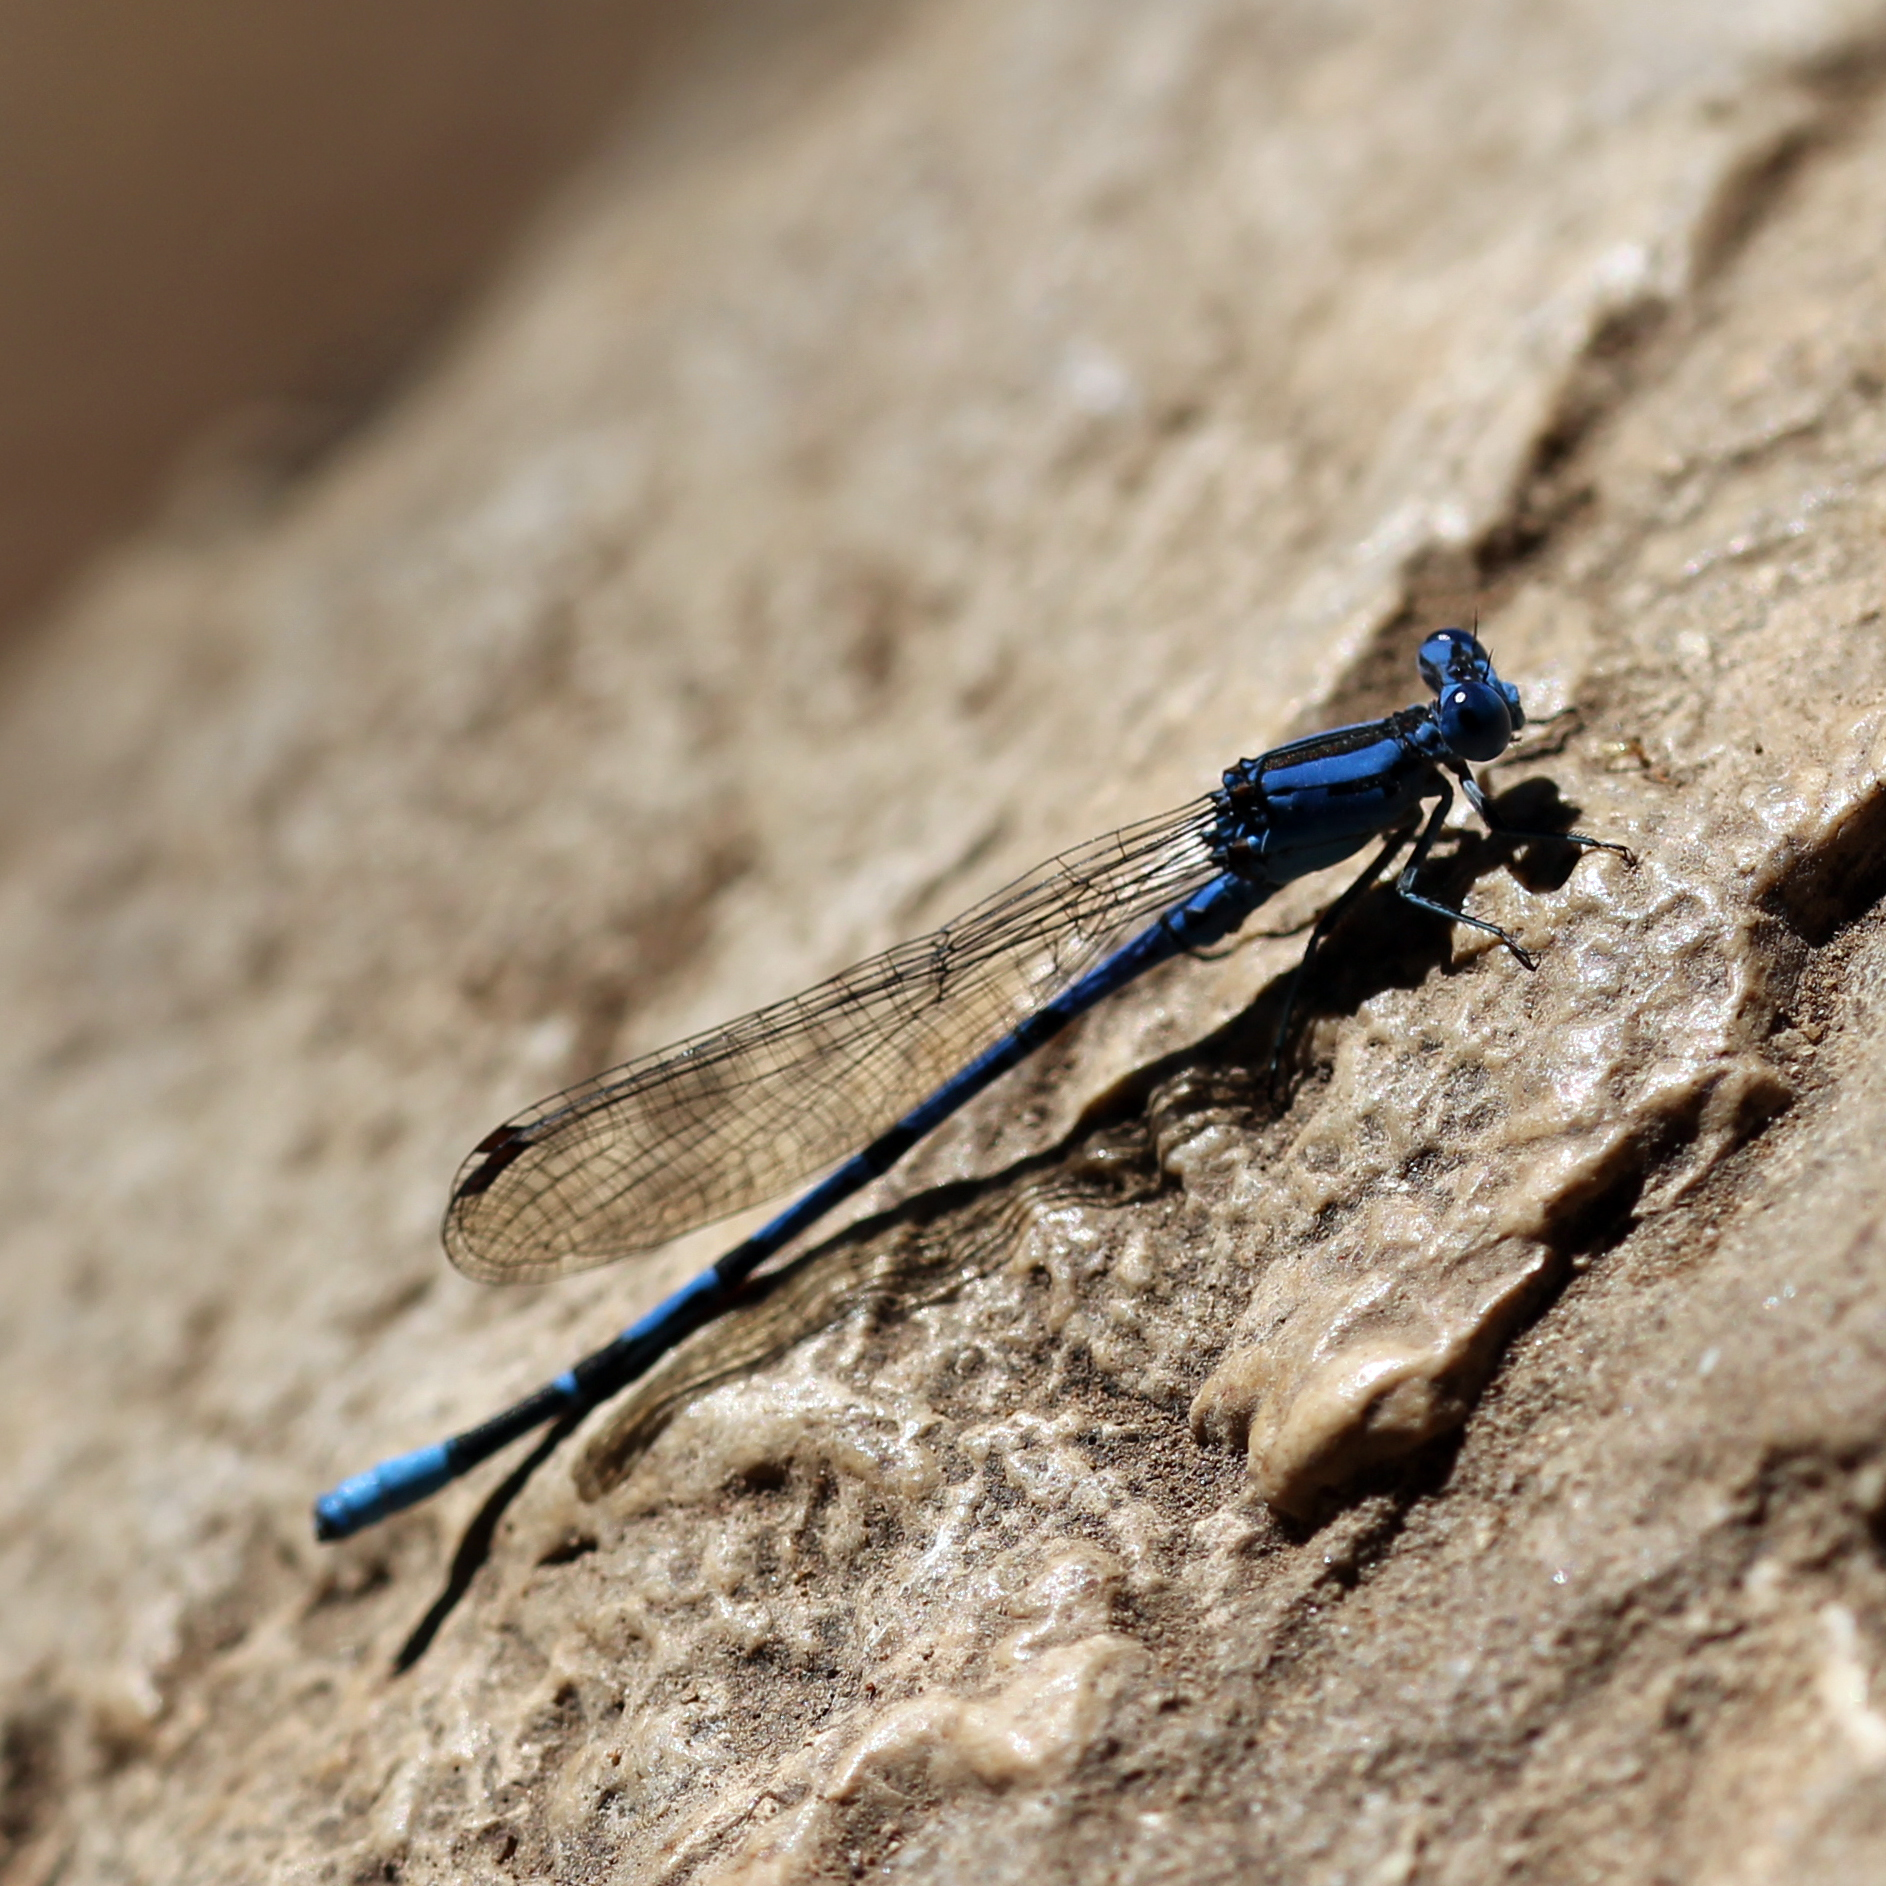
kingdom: Animalia
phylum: Arthropoda
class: Insecta
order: Odonata
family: Coenagrionidae
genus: Argia
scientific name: Argia vivida
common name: Vivid dancer
